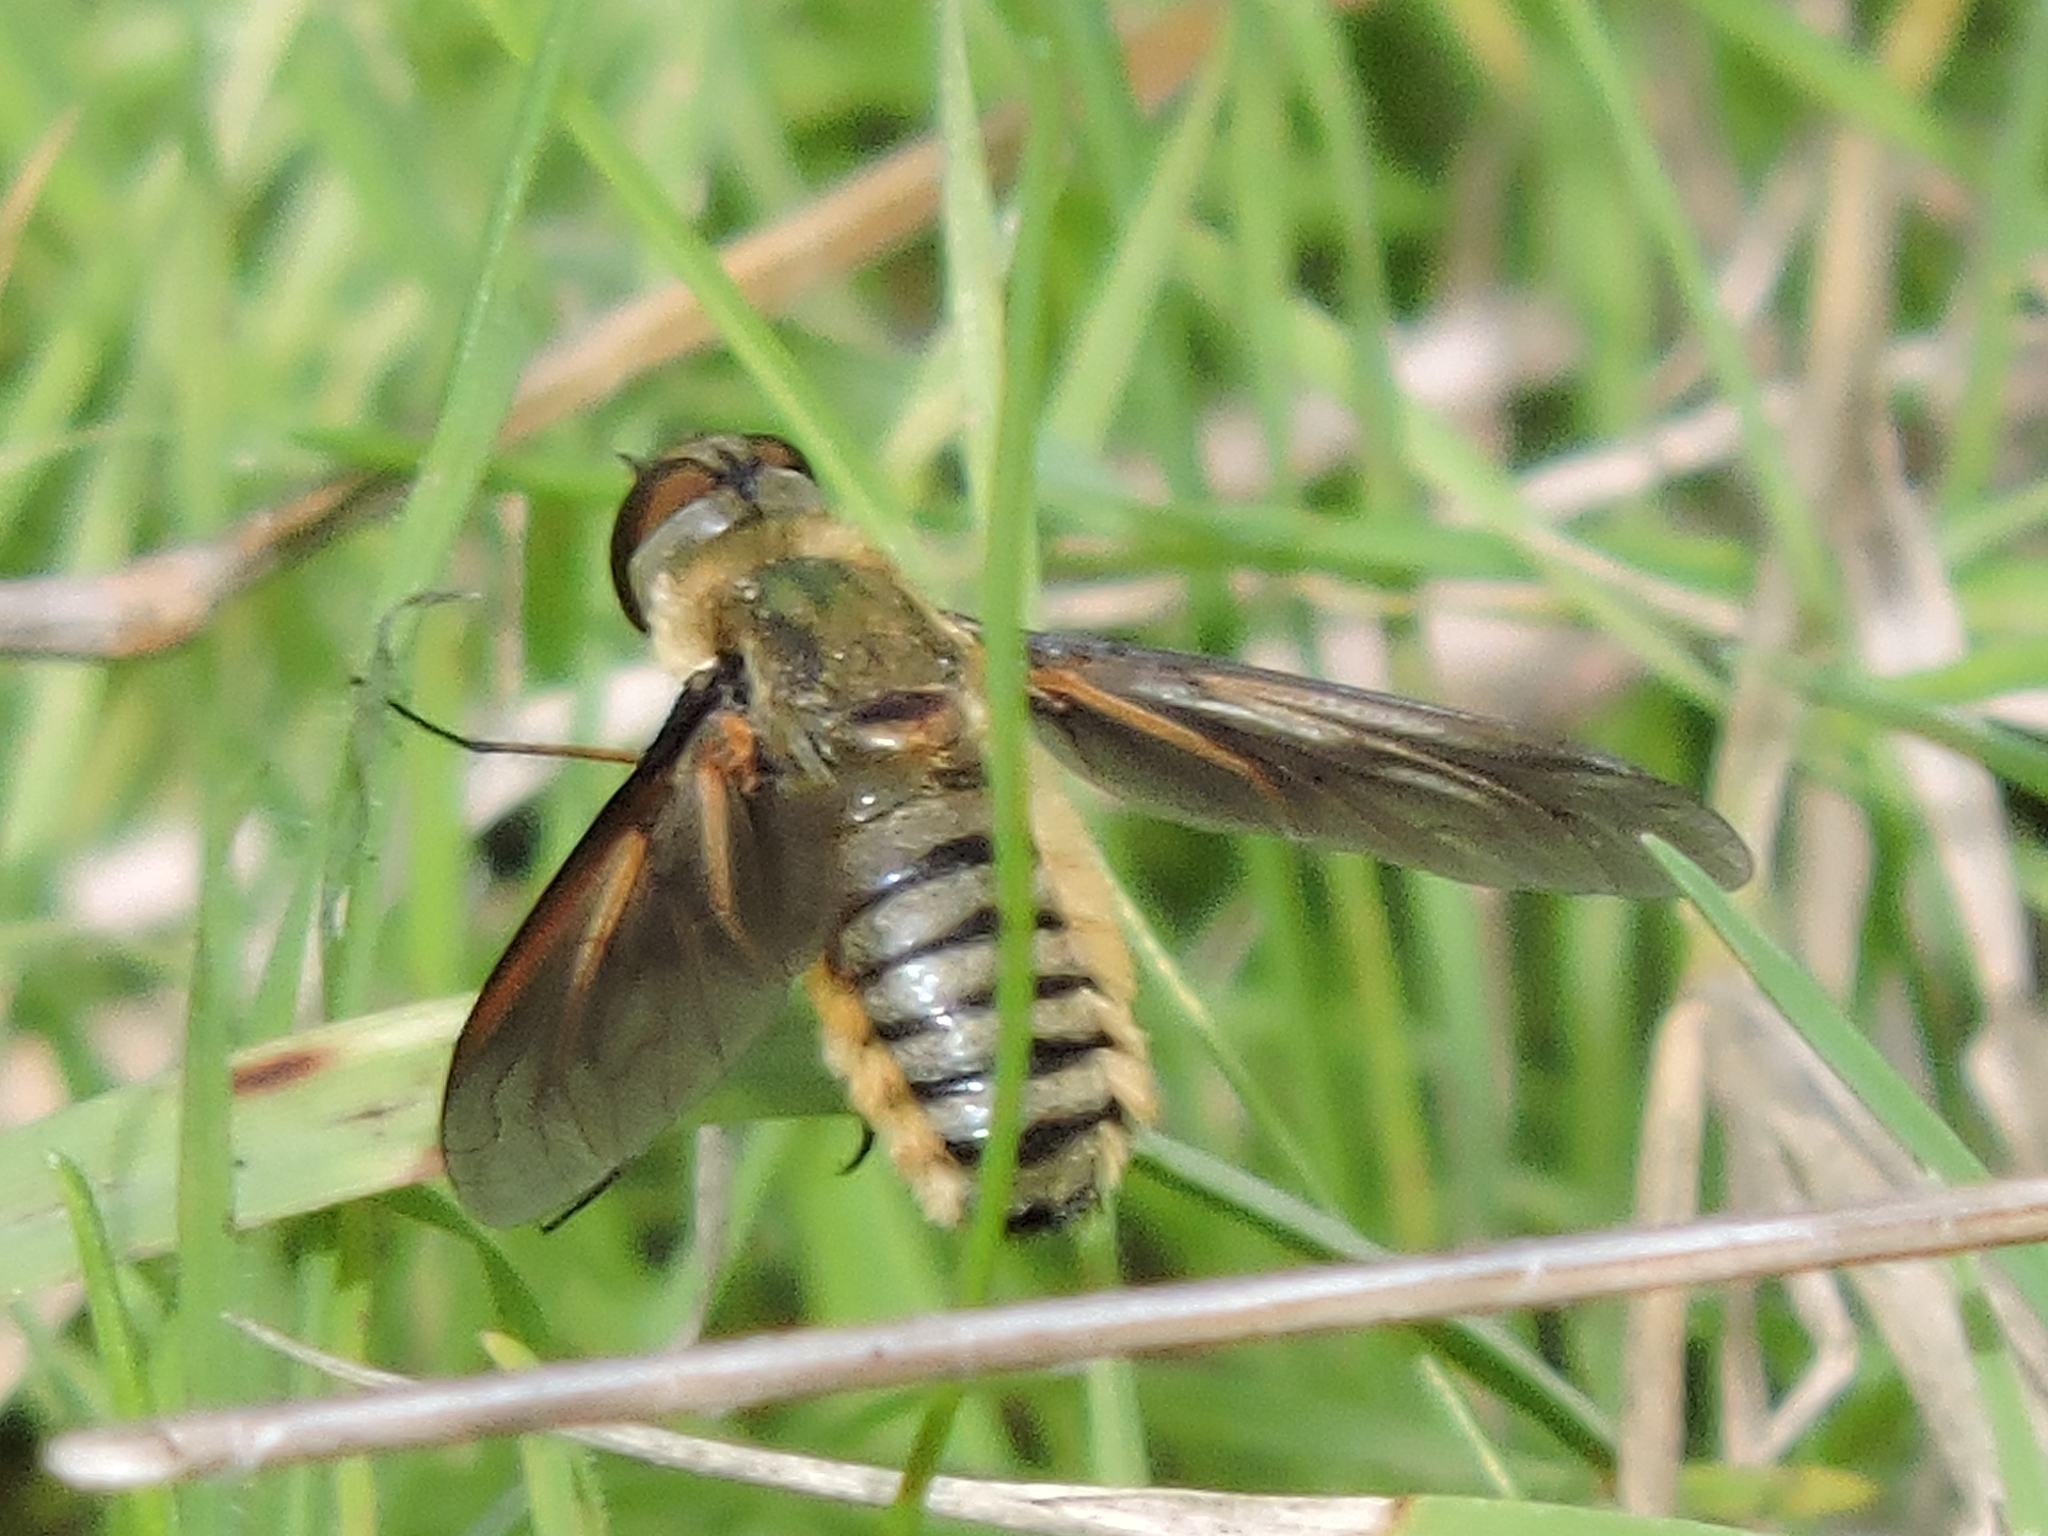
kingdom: Animalia
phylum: Arthropoda
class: Insecta
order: Diptera
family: Bombyliidae
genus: Poecilanthrax
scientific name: Poecilanthrax lucifer
